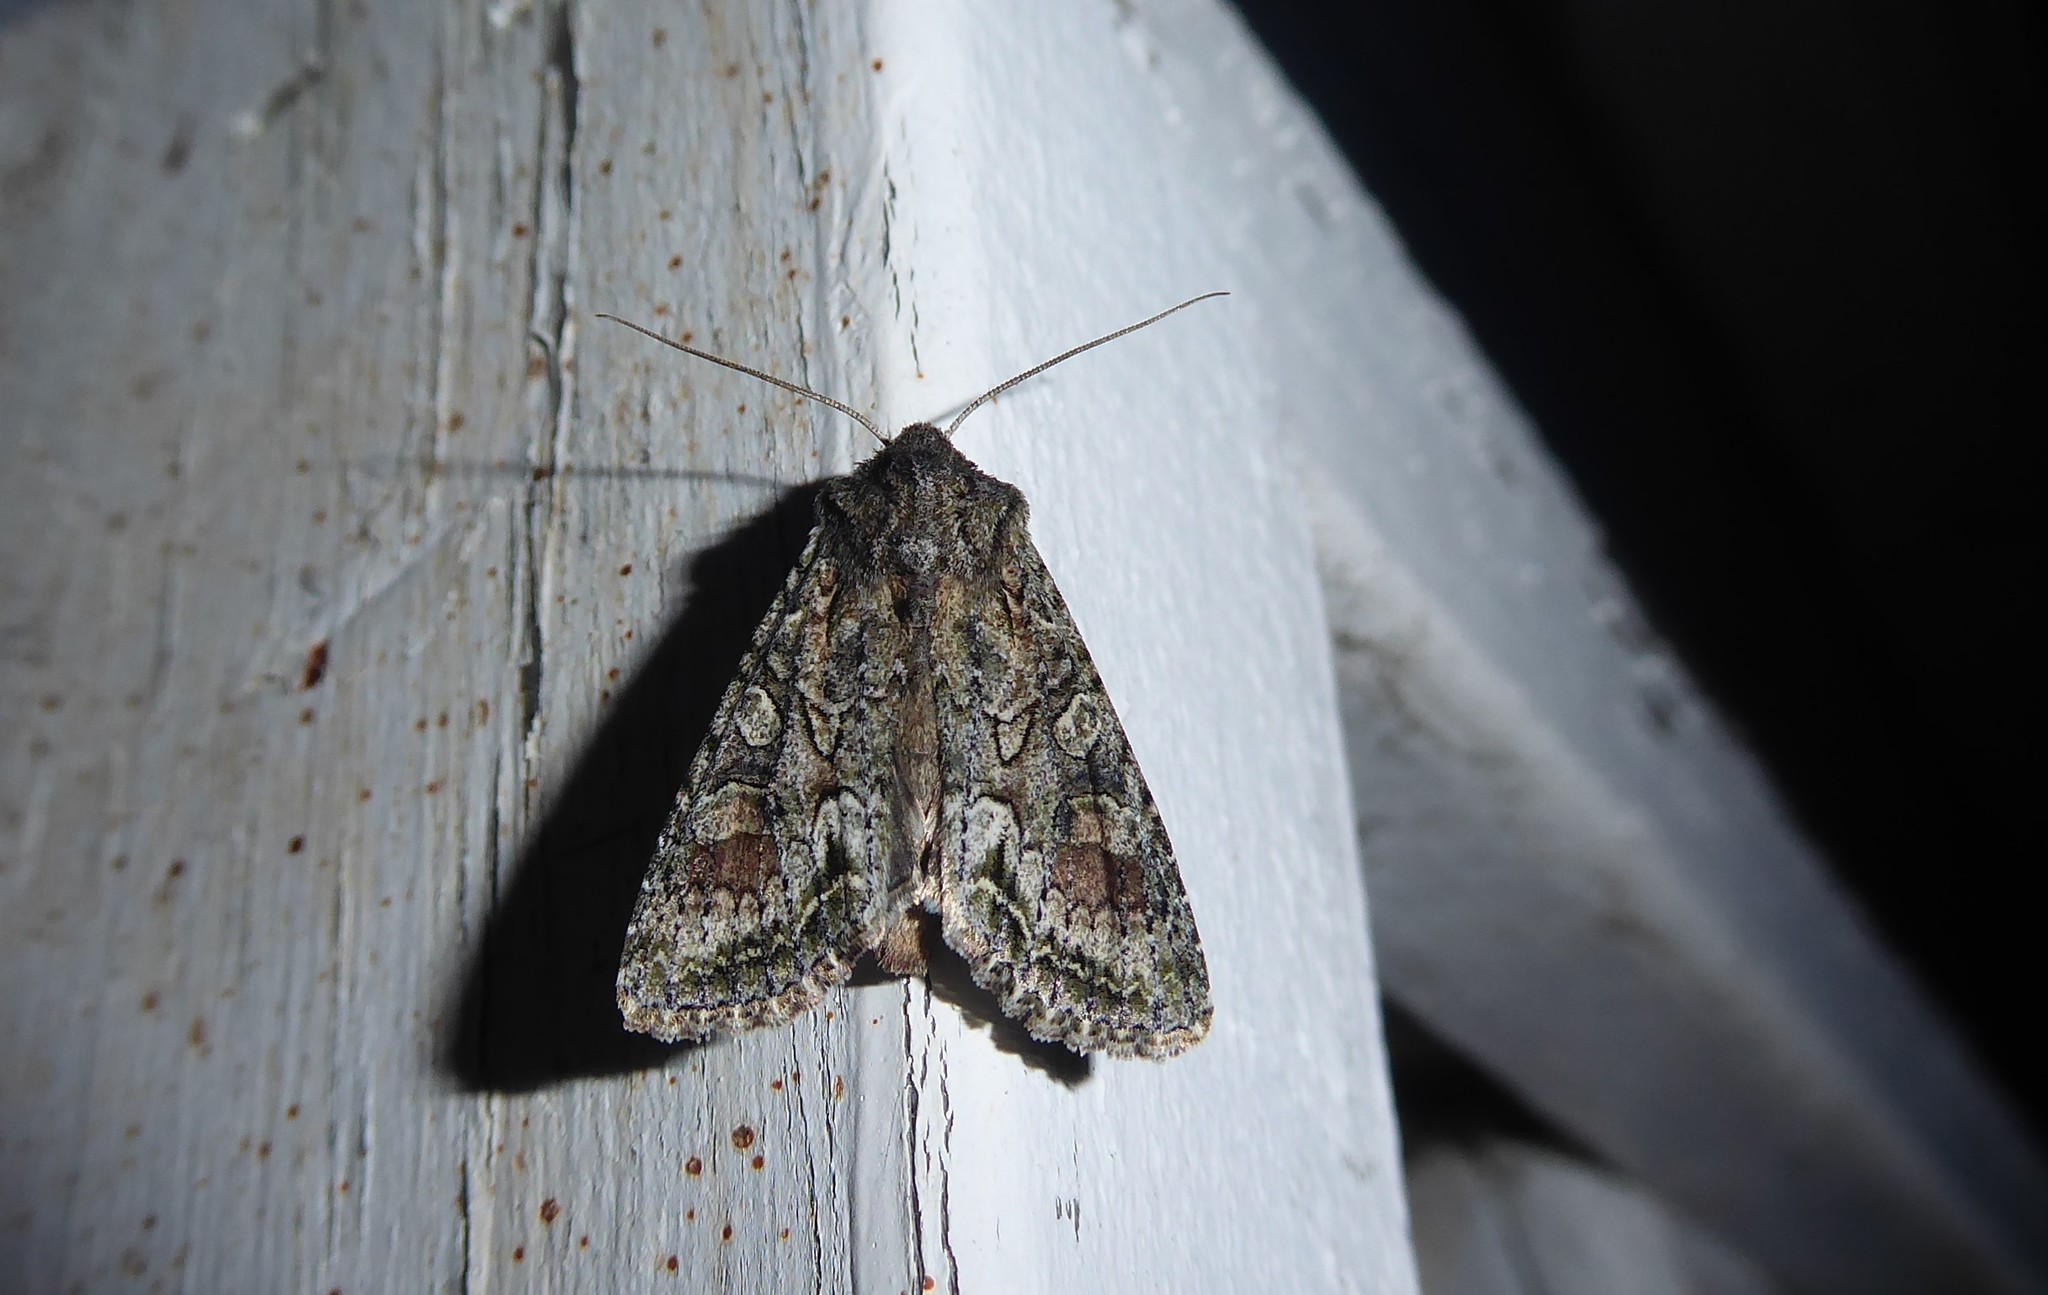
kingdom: Animalia
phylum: Arthropoda
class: Insecta
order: Lepidoptera
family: Noctuidae
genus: Ichneutica
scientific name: Ichneutica mutans
